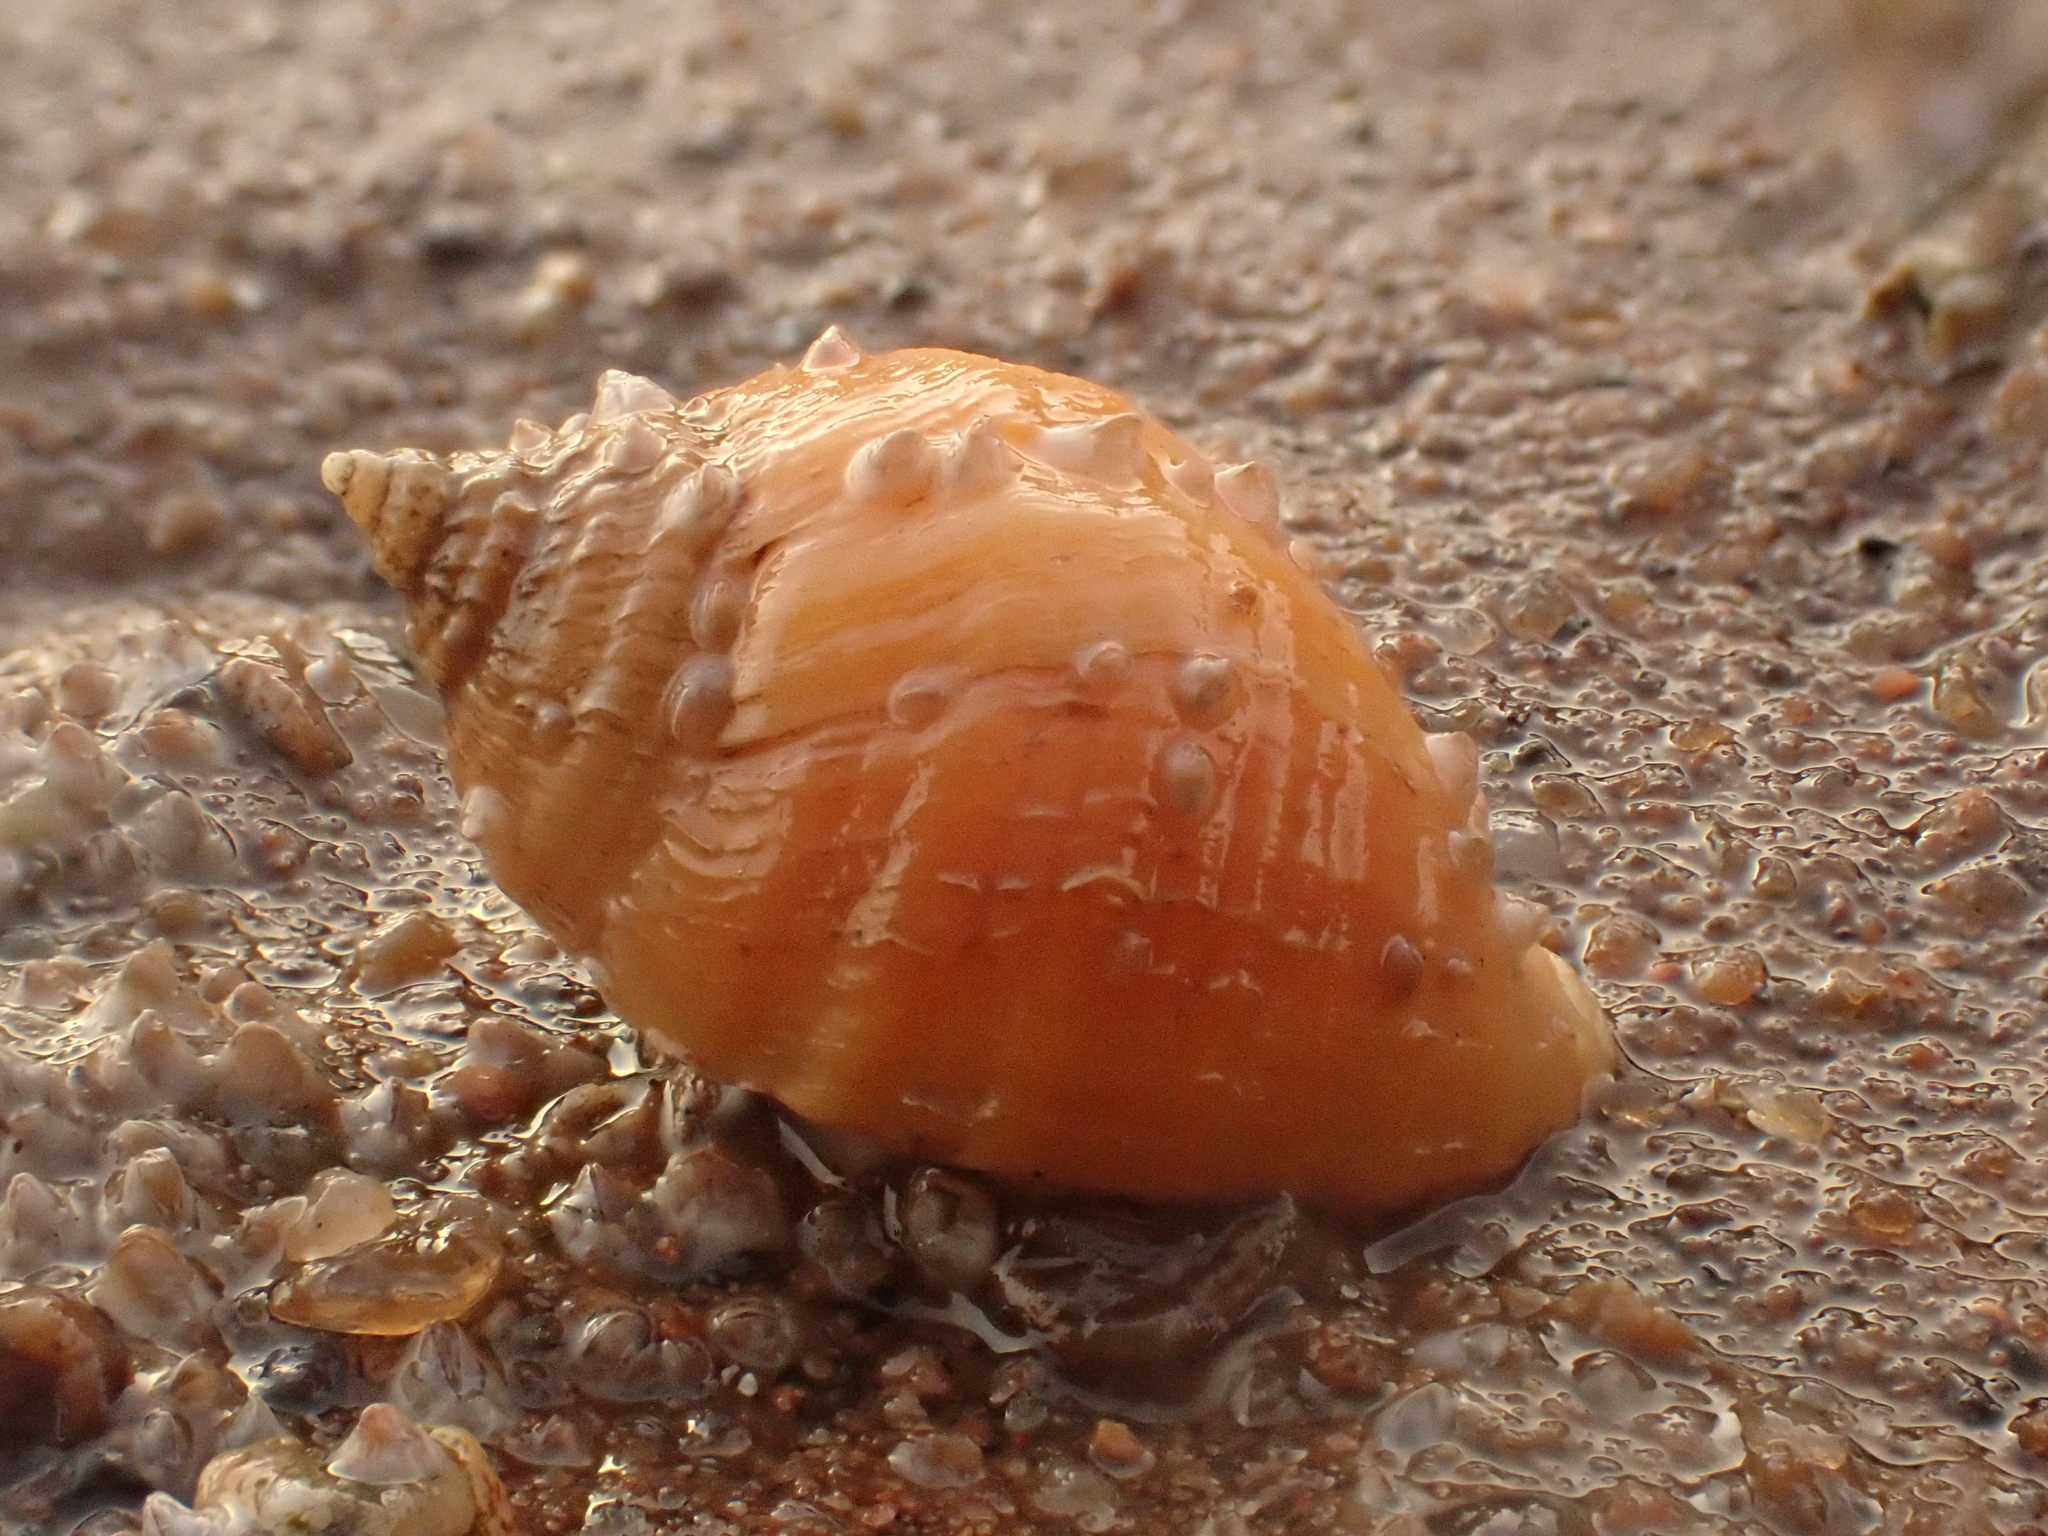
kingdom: Animalia
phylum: Mollusca
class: Gastropoda
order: Neogastropoda
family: Muricidae
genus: Nucella
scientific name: Nucella lapillus
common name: Dog whelk
